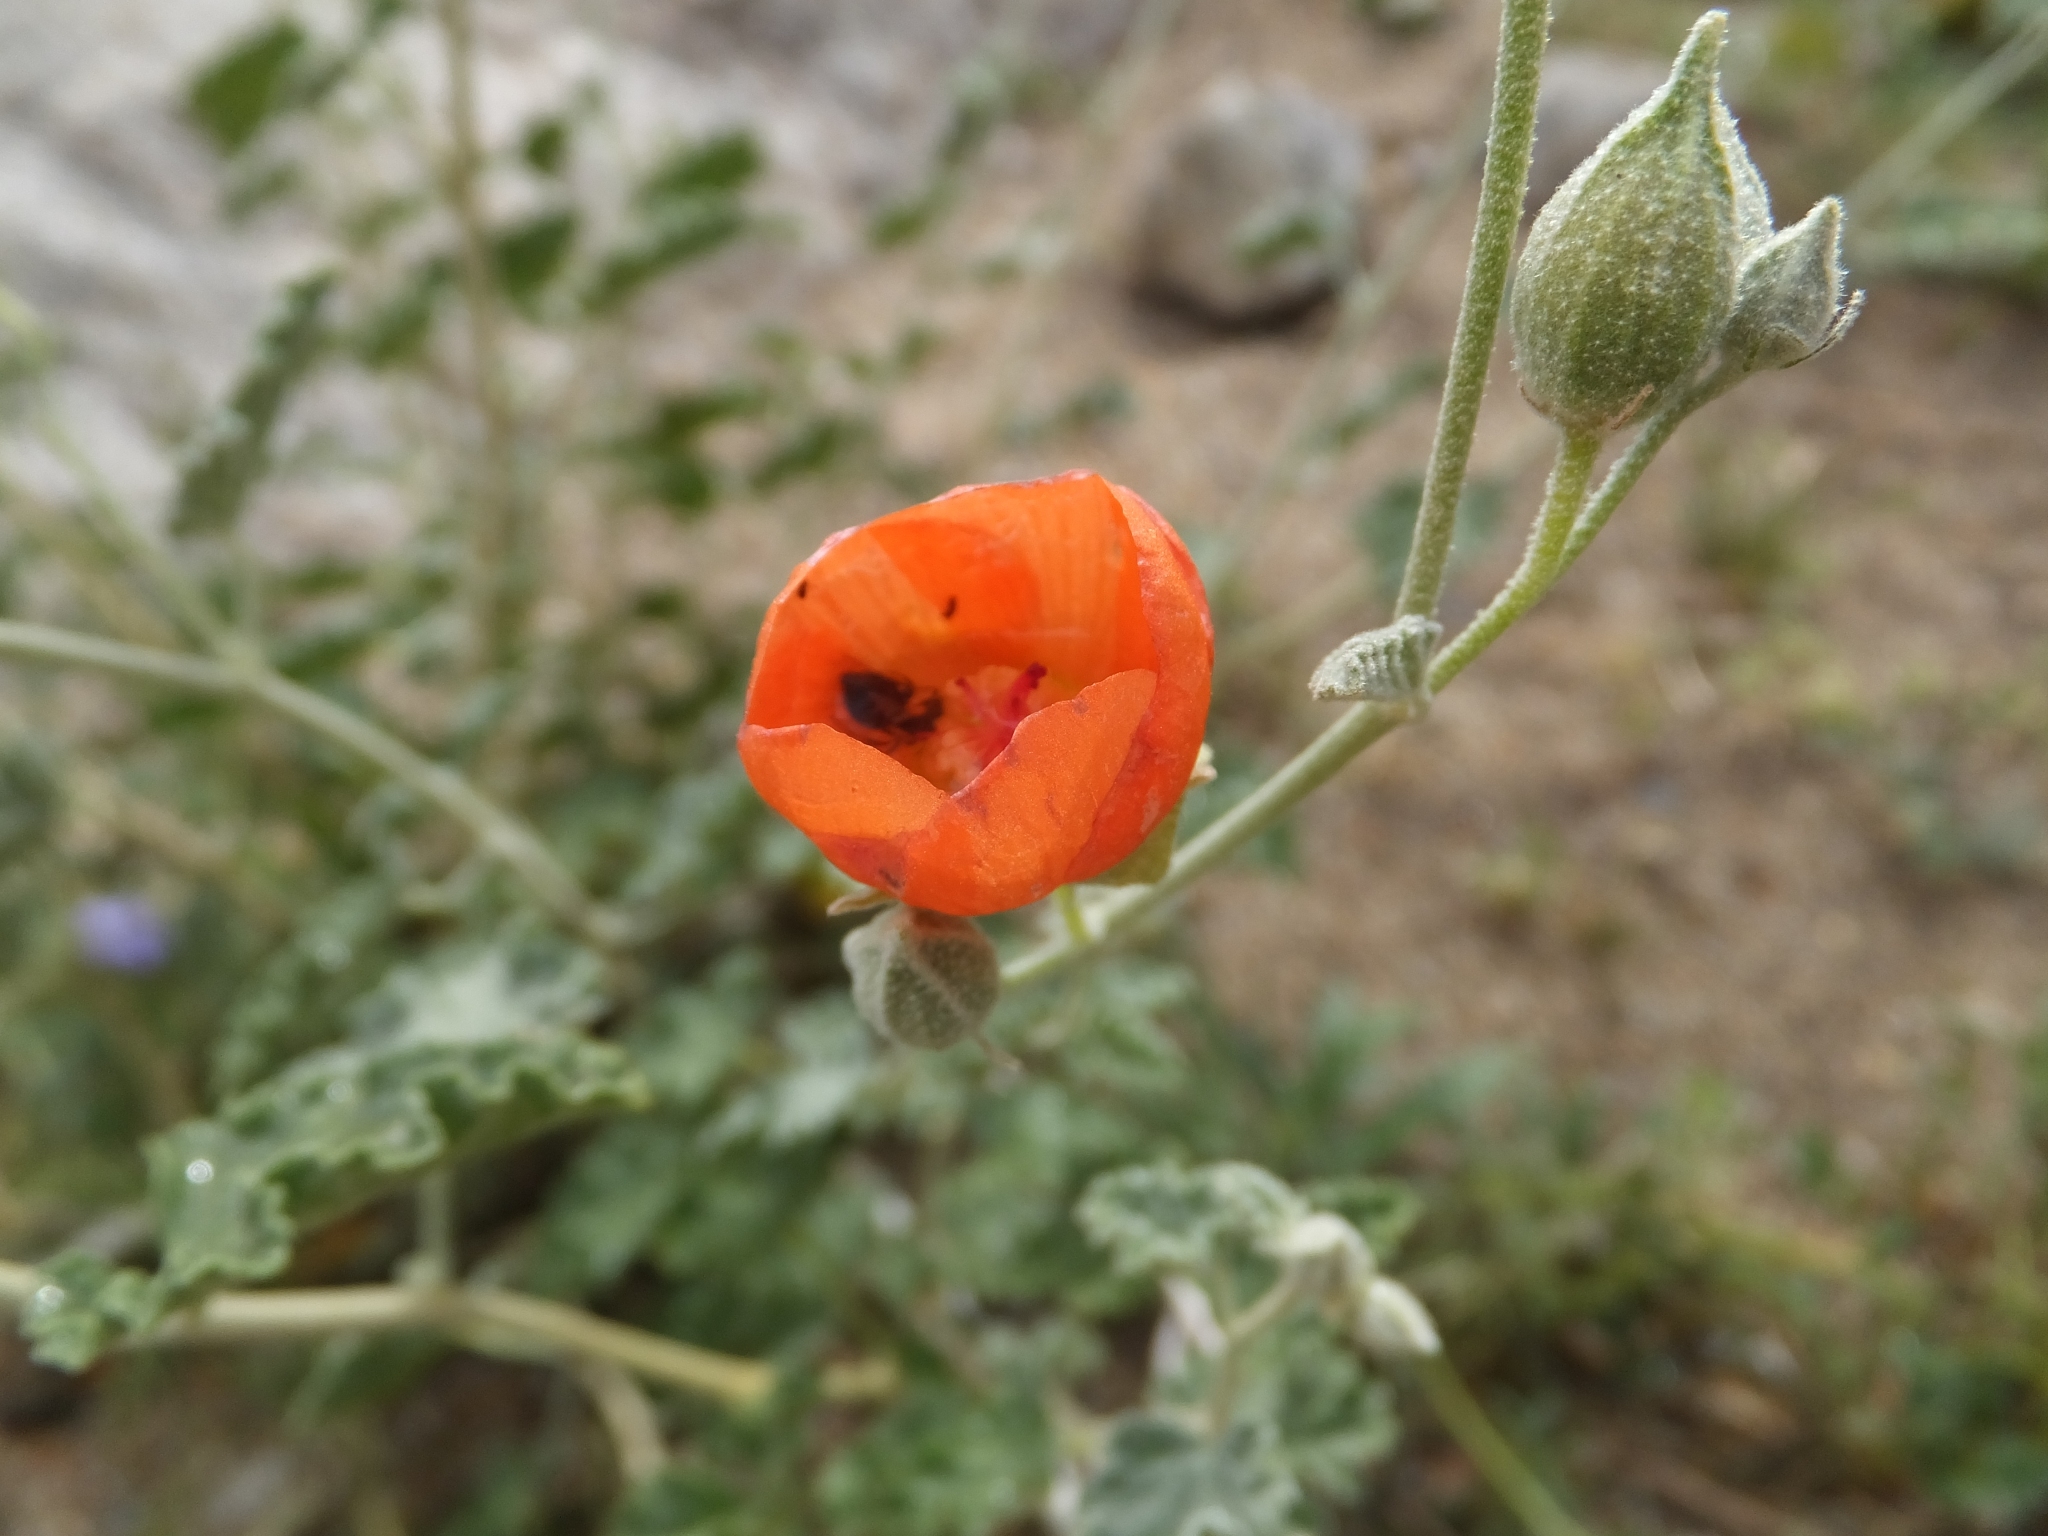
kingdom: Plantae
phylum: Tracheophyta
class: Magnoliopsida
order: Malvales
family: Malvaceae
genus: Sphaeralcea
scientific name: Sphaeralcea ambigua
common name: Apricot globe-mallow
